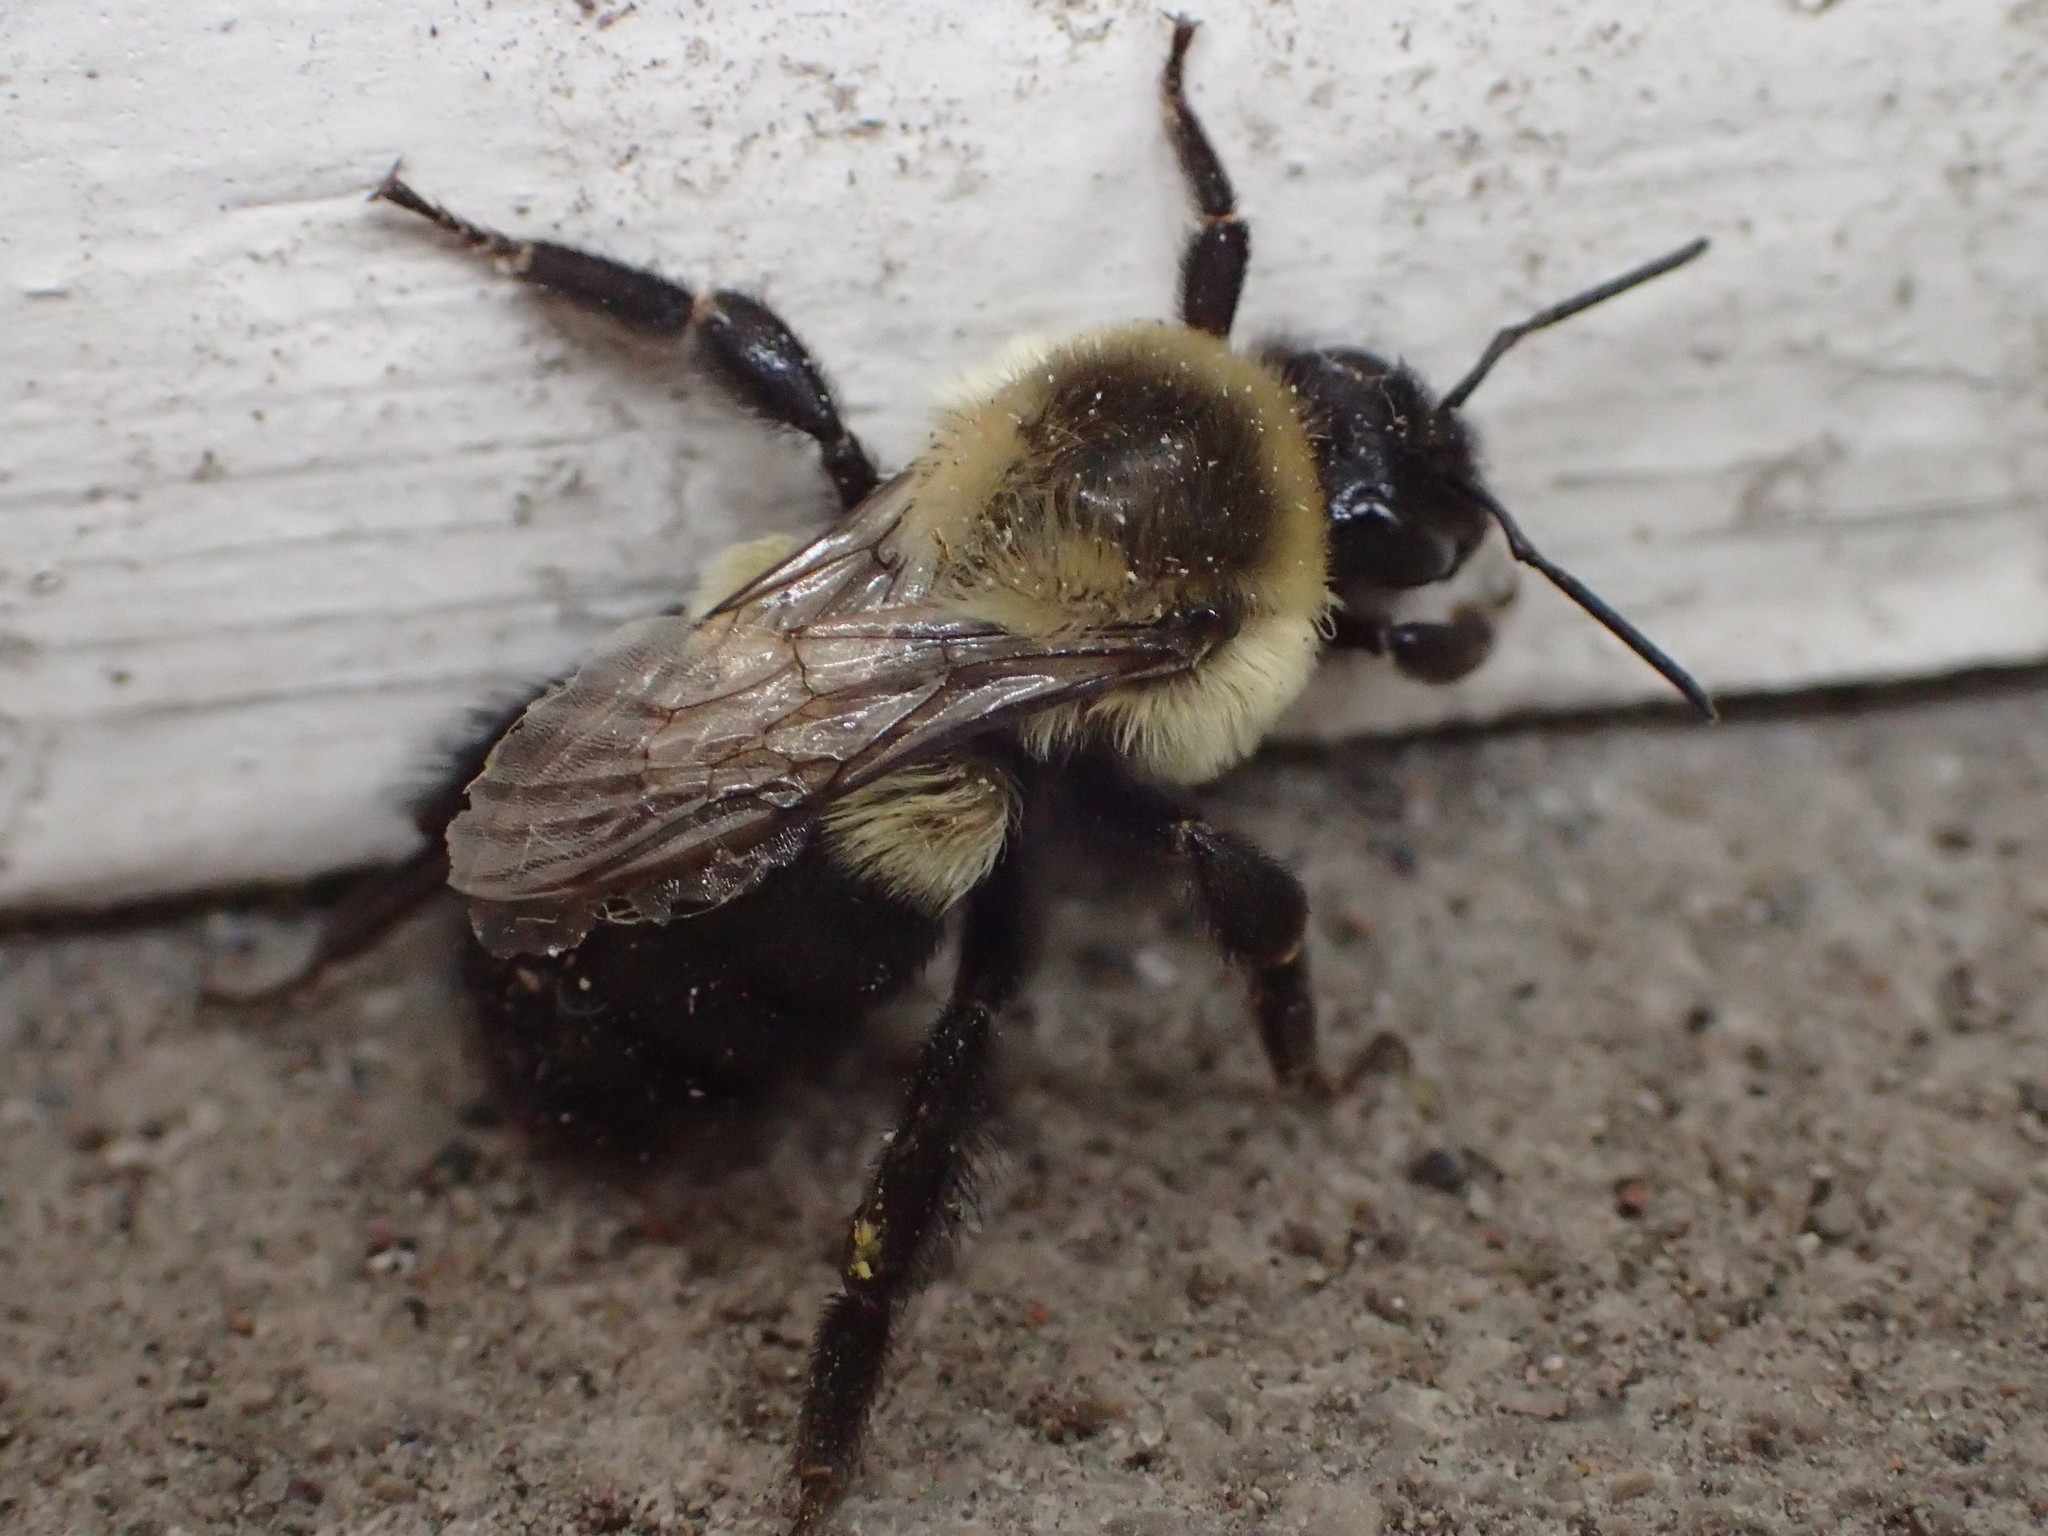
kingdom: Animalia
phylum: Arthropoda
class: Insecta
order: Hymenoptera
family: Apidae
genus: Bombus
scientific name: Bombus impatiens
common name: Common eastern bumble bee
